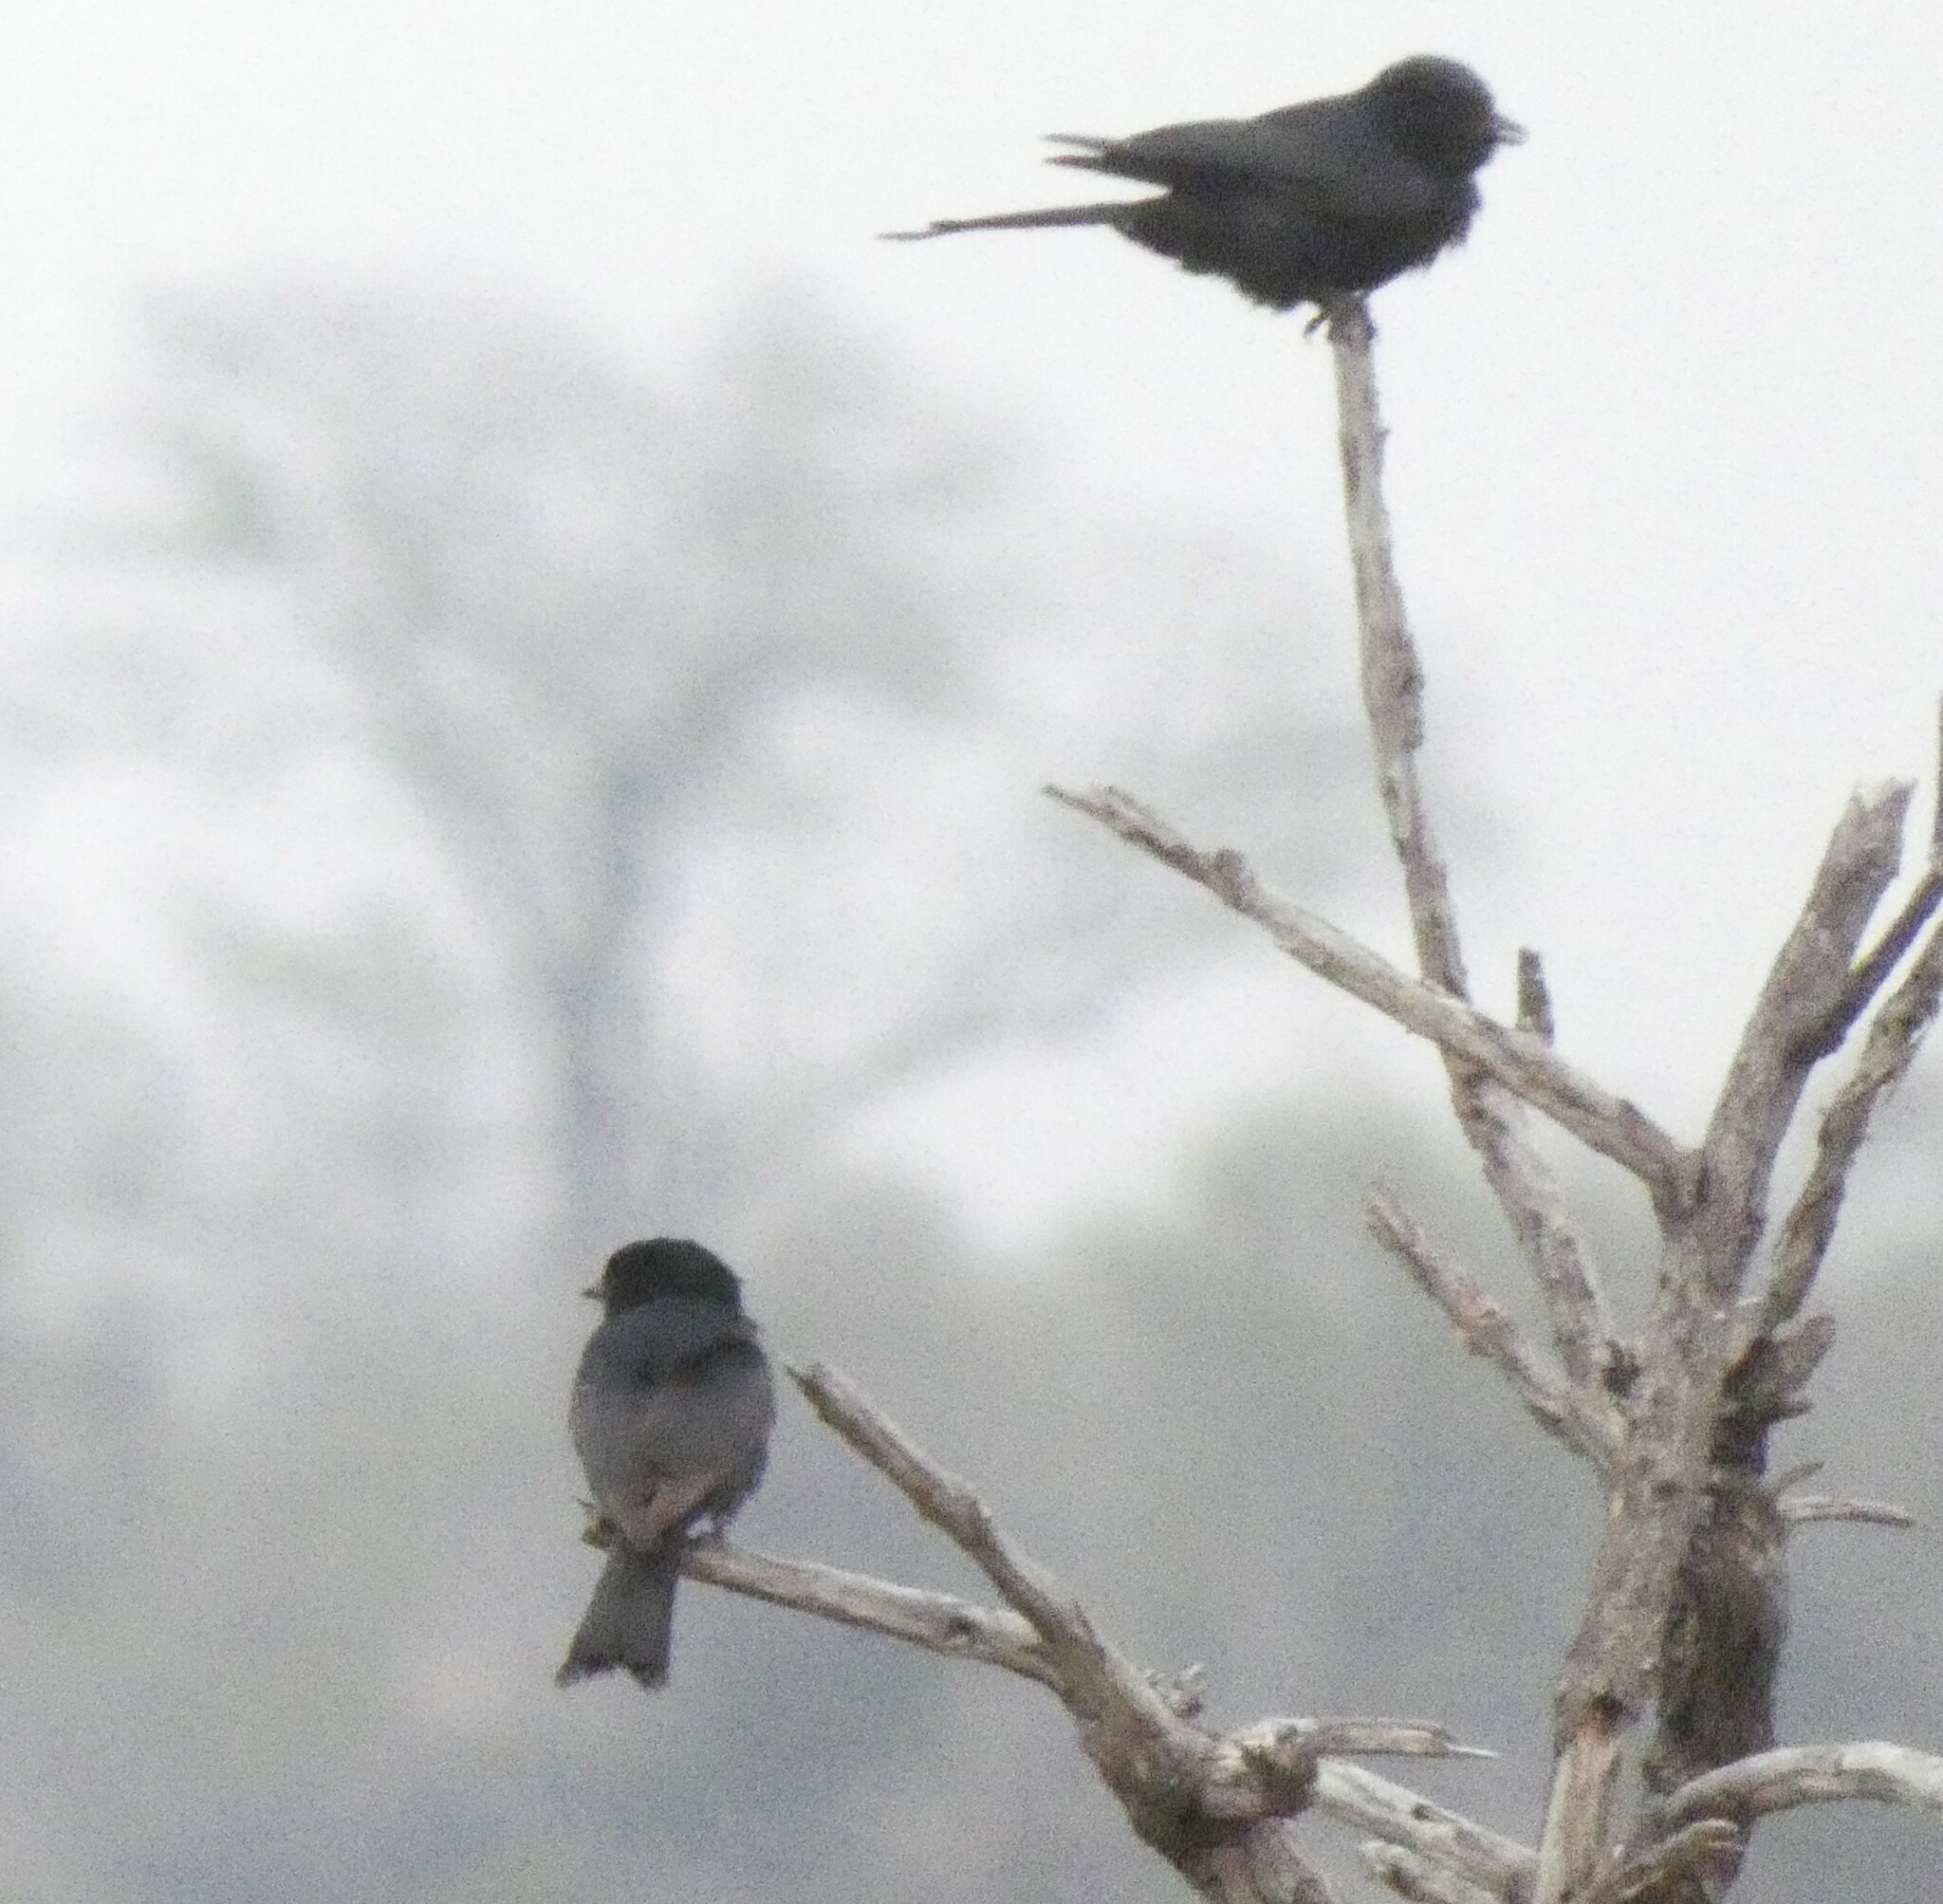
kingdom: Animalia
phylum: Chordata
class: Aves
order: Passeriformes
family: Dicruridae
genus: Dicrurus
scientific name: Dicrurus adsimilis
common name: Fork-tailed drongo
